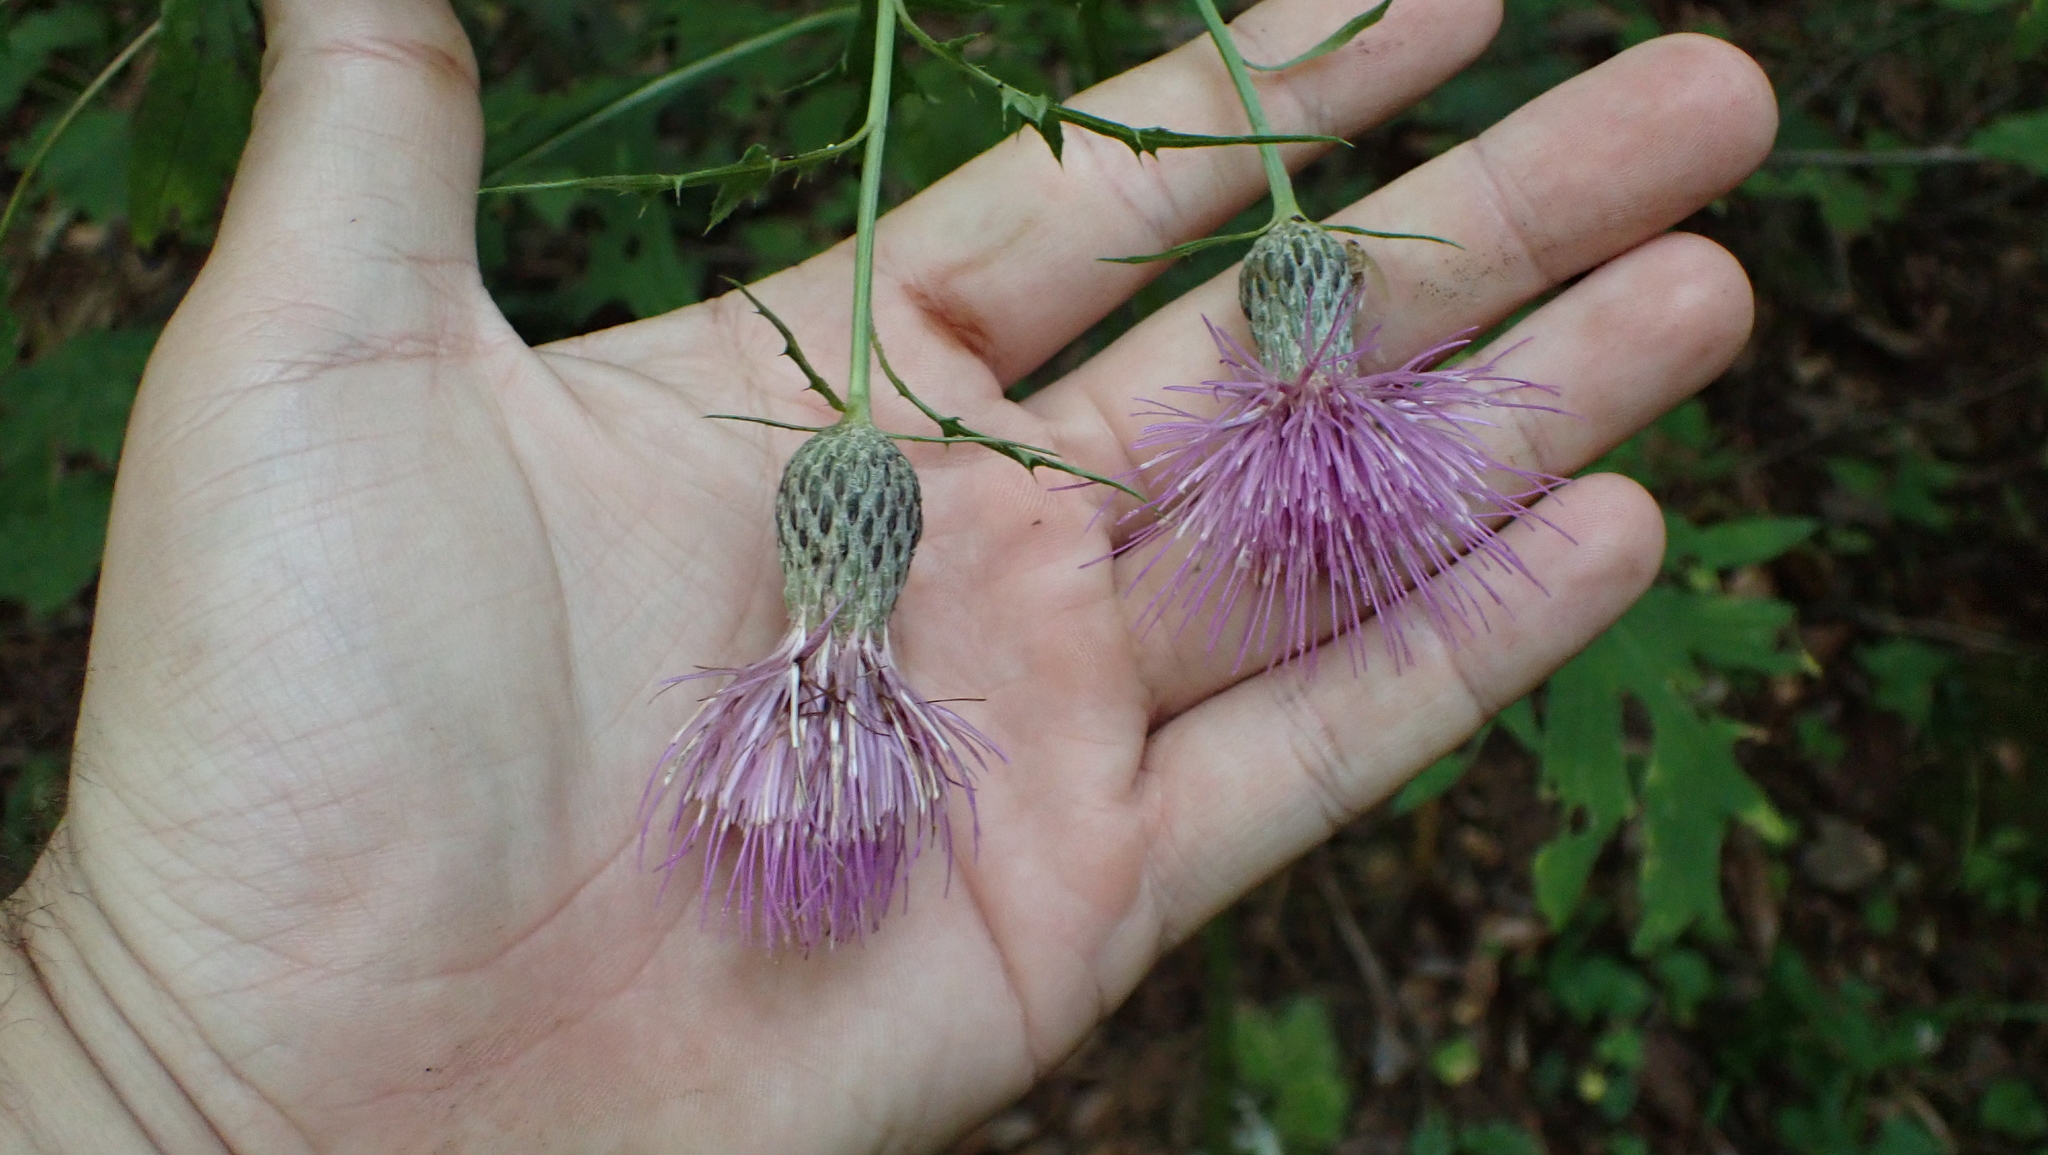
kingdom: Plantae
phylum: Tracheophyta
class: Magnoliopsida
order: Asterales
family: Asteraceae
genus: Cirsium
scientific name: Cirsium muticum
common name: Dunce-nettle
